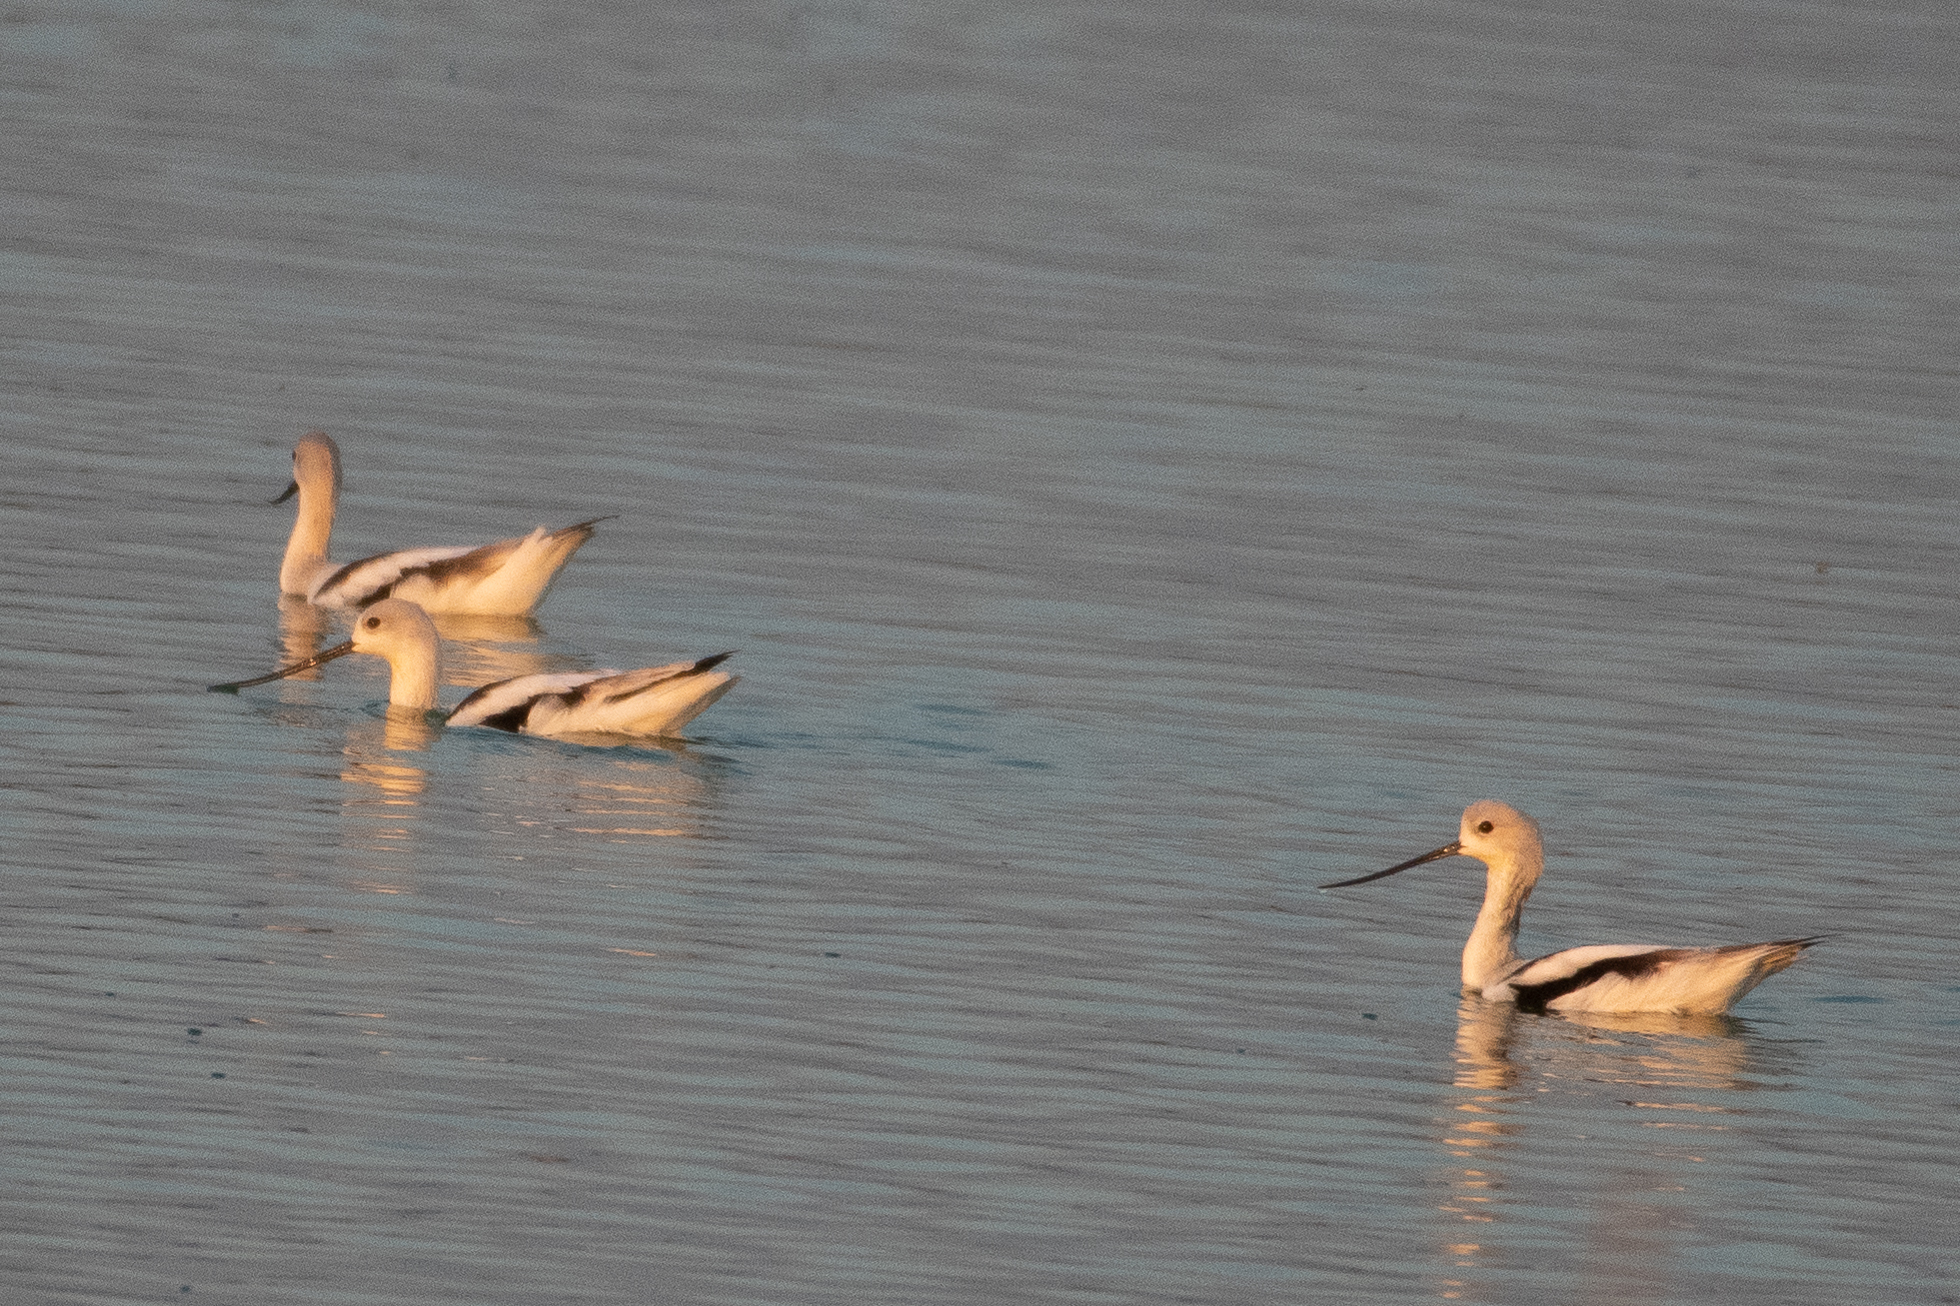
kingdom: Animalia
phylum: Chordata
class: Aves
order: Charadriiformes
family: Recurvirostridae
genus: Recurvirostra
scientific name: Recurvirostra americana
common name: American avocet
